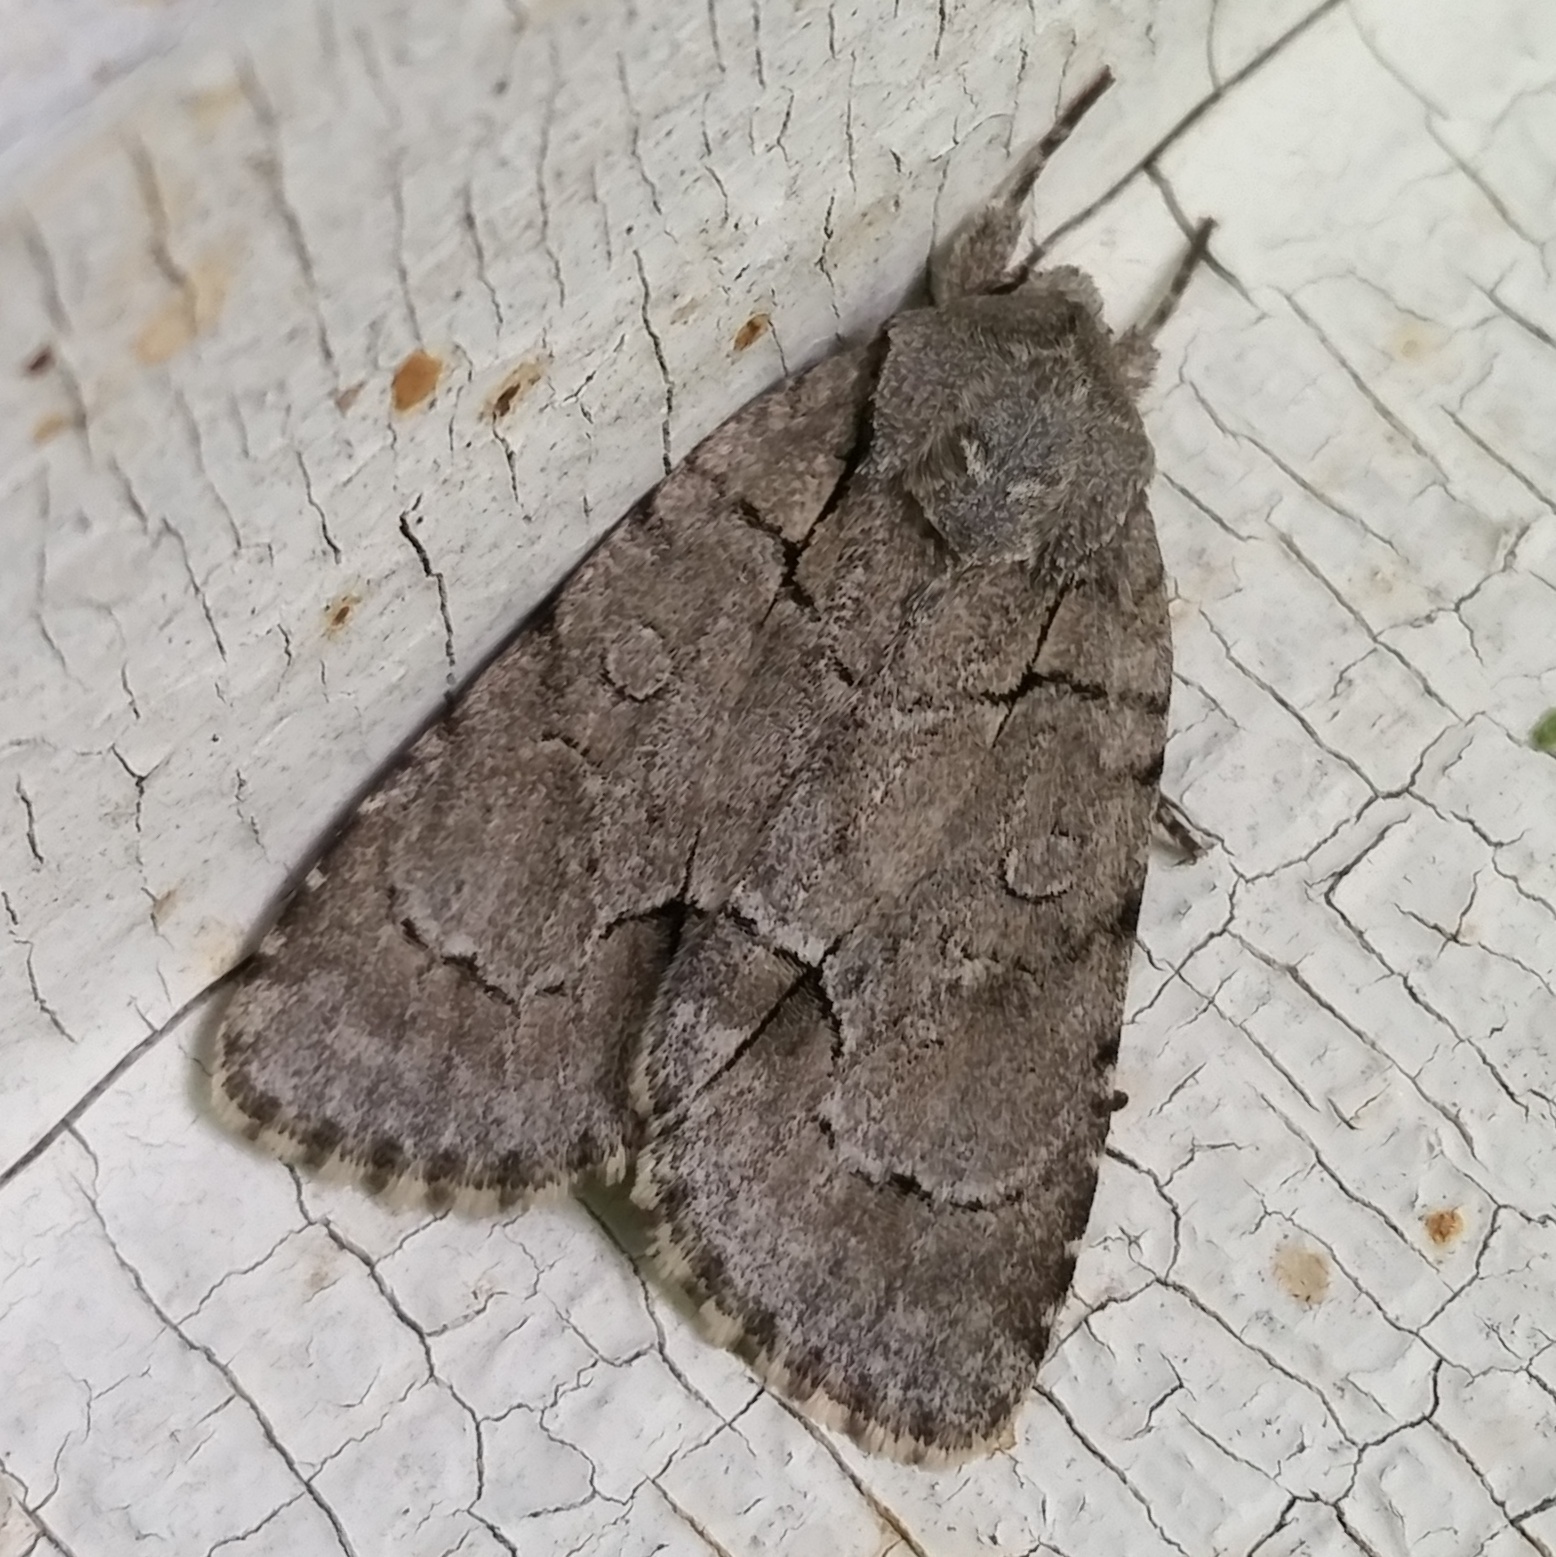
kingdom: Animalia
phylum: Arthropoda
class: Insecta
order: Lepidoptera
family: Noctuidae
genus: Acronicta
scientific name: Acronicta radcliffei
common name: Radcliffe's dagger
